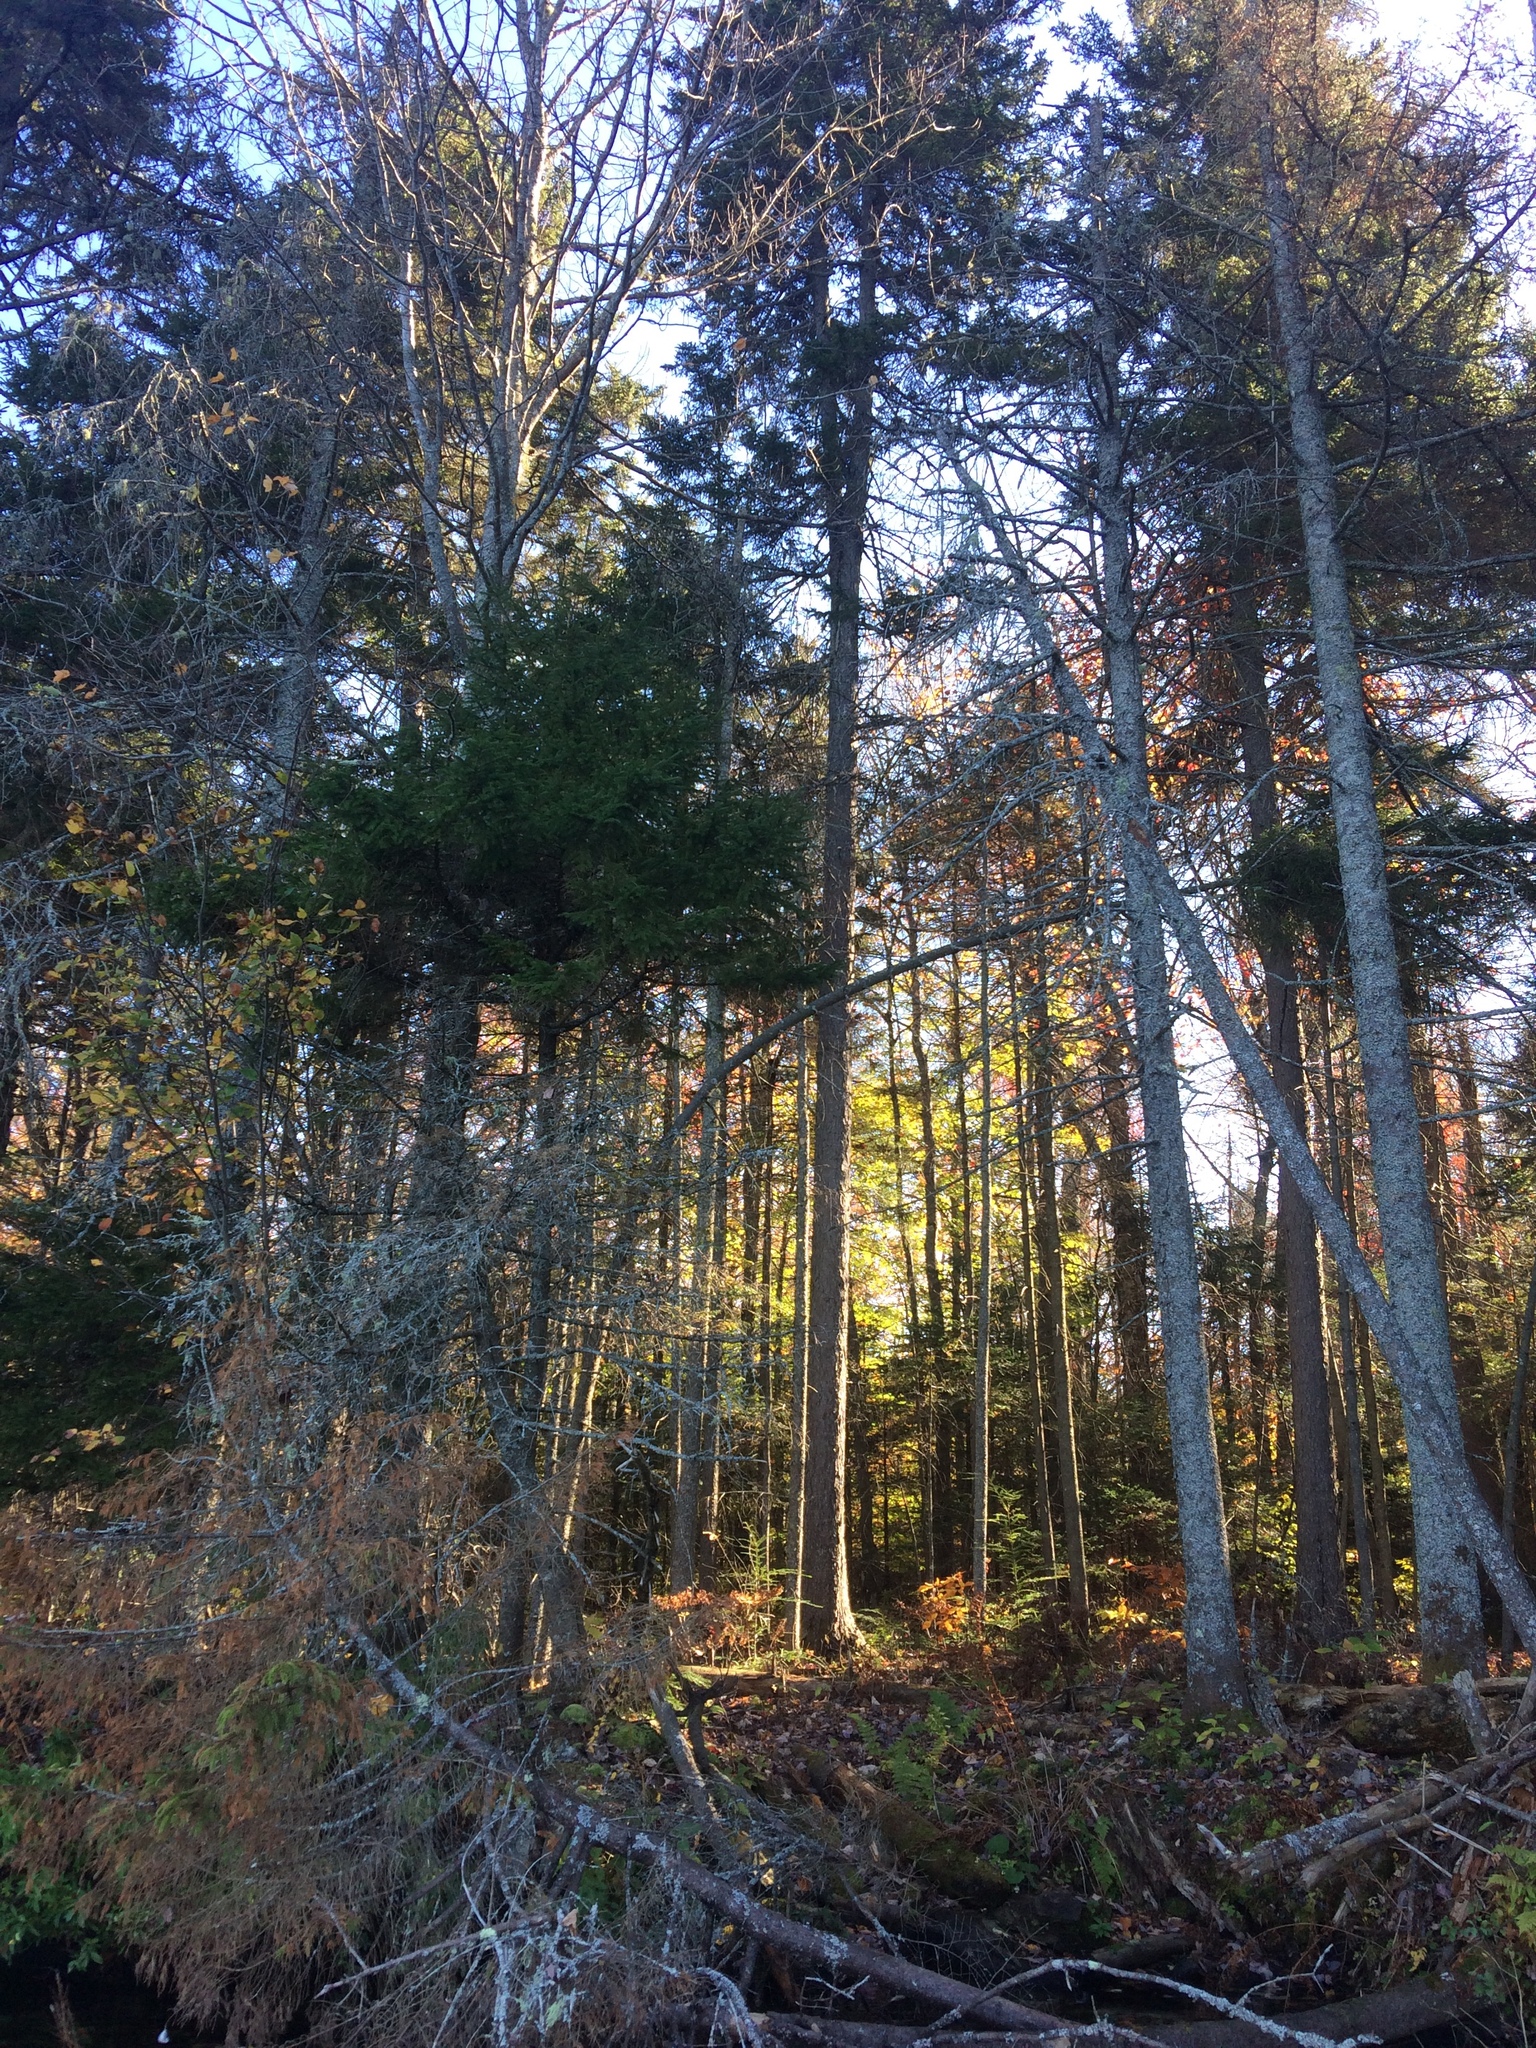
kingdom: Plantae
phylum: Tracheophyta
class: Pinopsida
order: Pinales
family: Pinaceae
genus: Picea
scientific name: Picea rubens
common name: Red spruce
